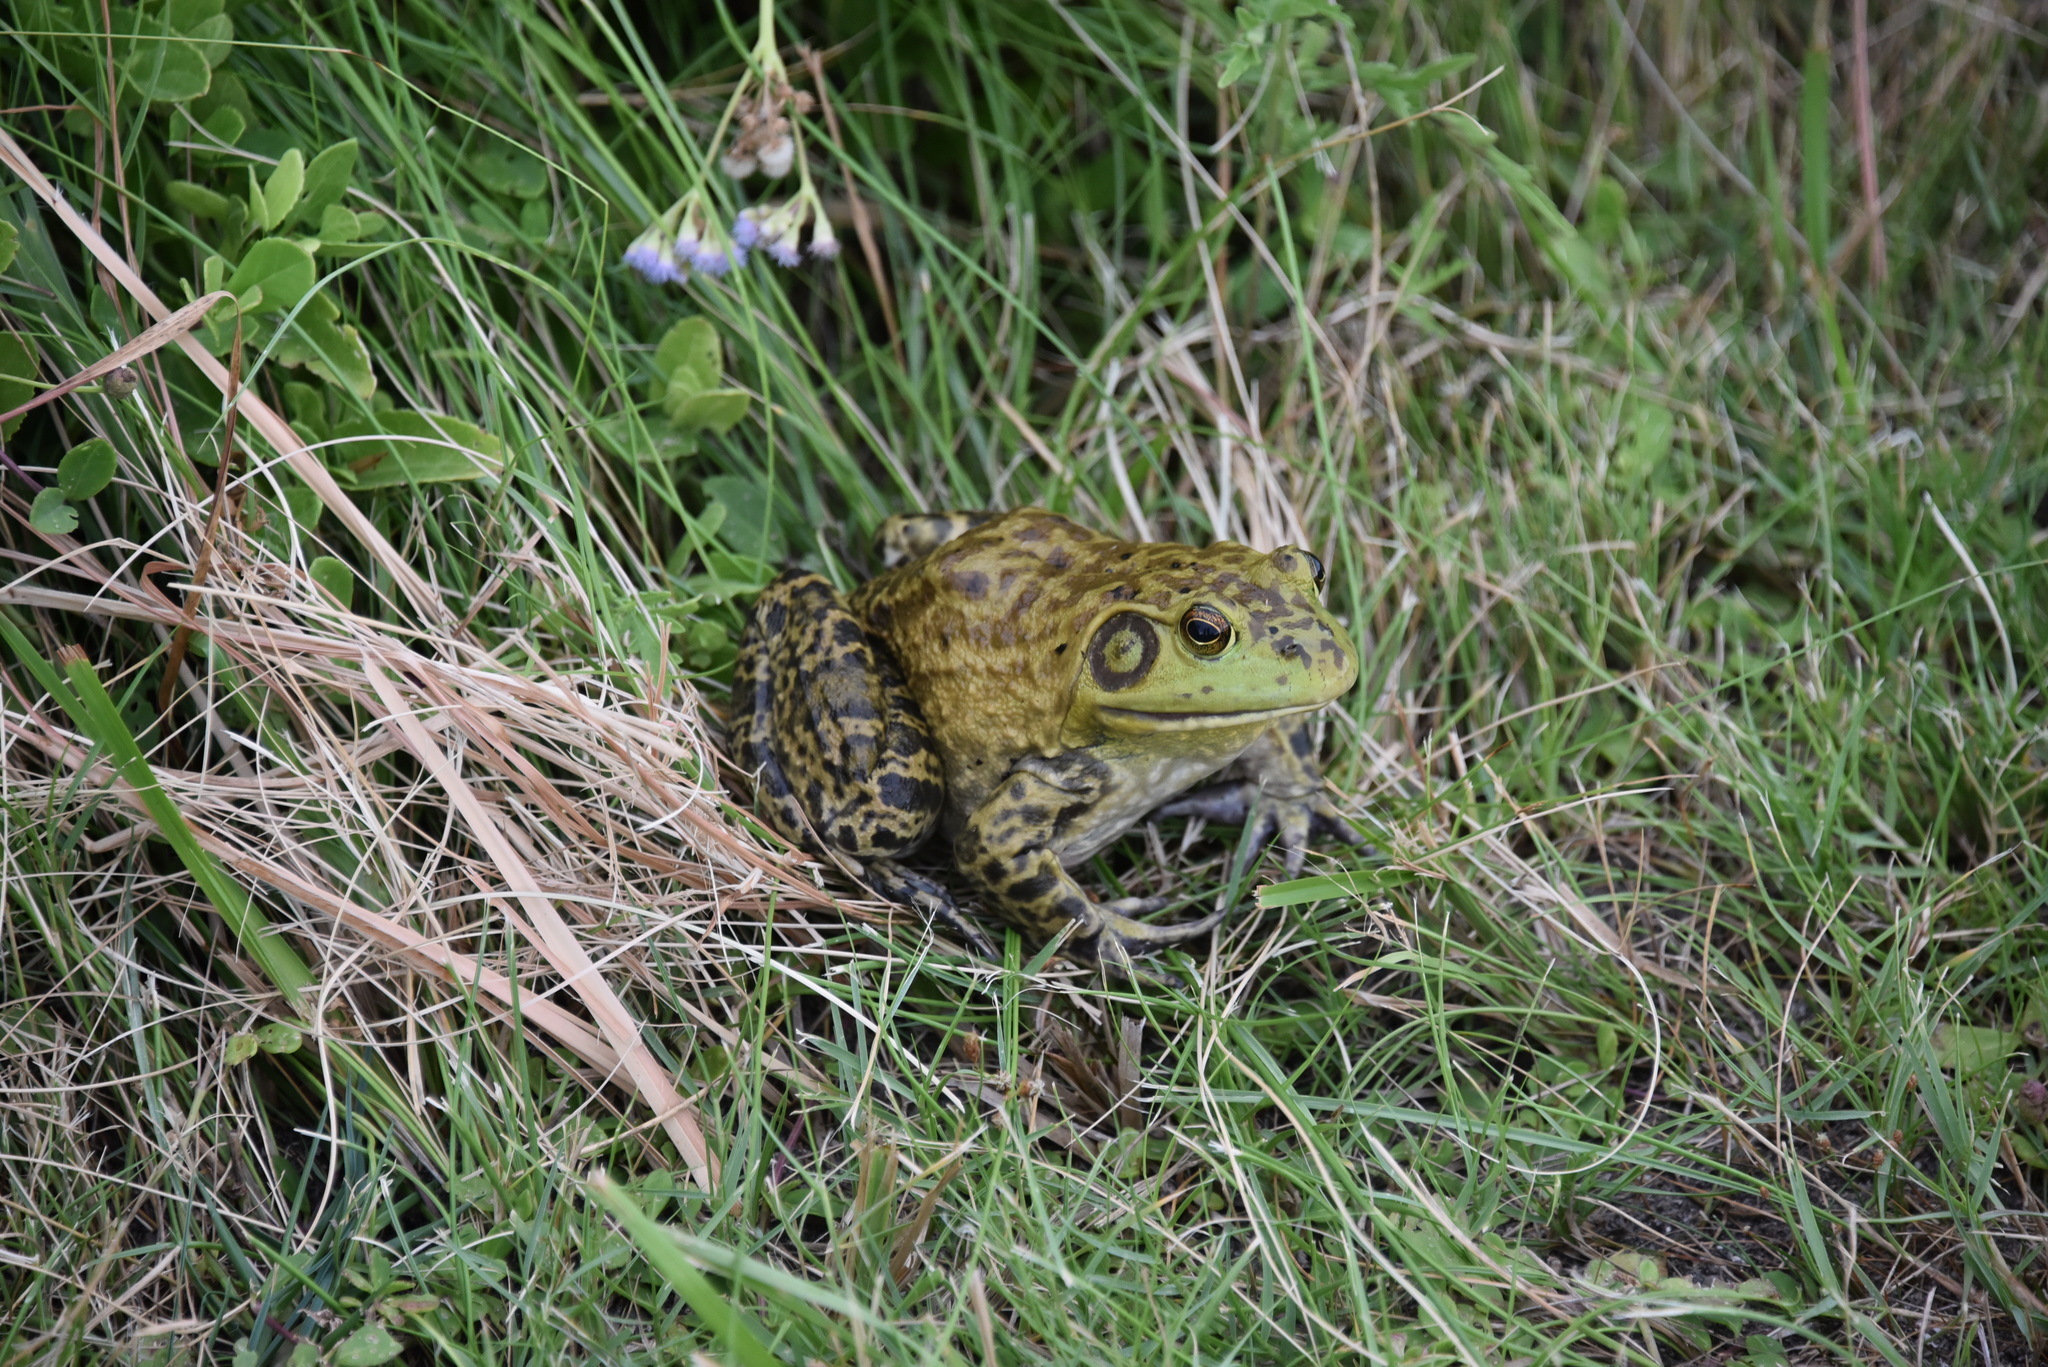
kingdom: Animalia
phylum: Chordata
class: Amphibia
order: Anura
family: Ranidae
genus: Lithobates
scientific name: Lithobates catesbeianus
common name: American bullfrog
